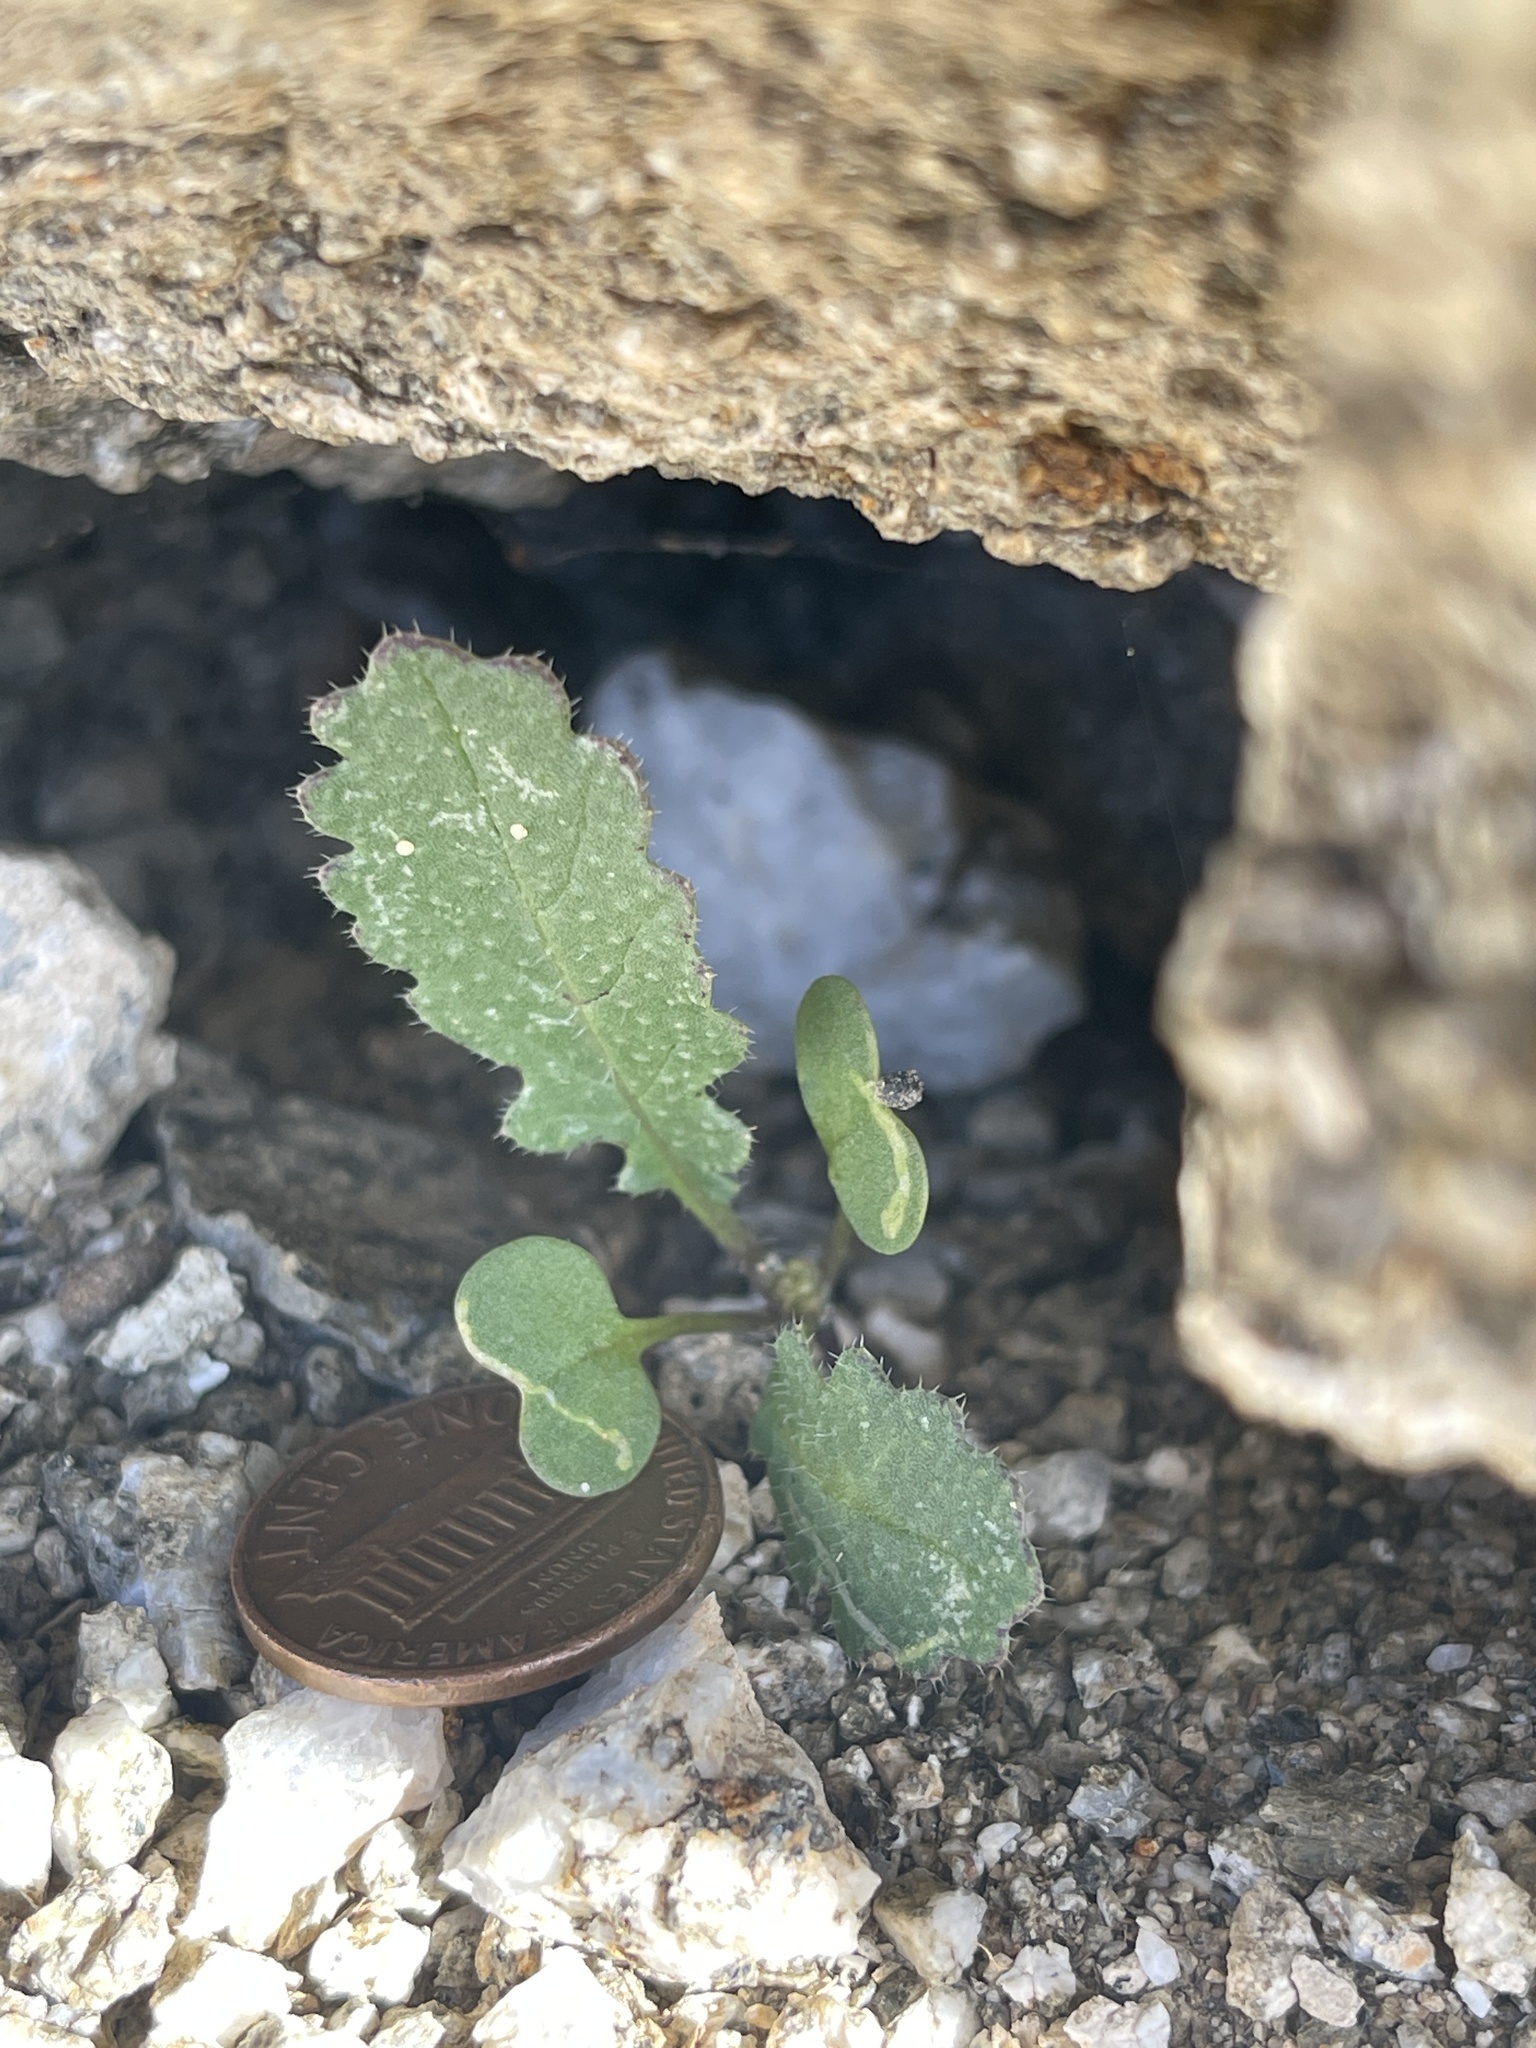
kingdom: Plantae
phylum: Tracheophyta
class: Magnoliopsida
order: Brassicales
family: Brassicaceae
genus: Brassica
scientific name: Brassica tournefortii
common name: Pale cabbage
